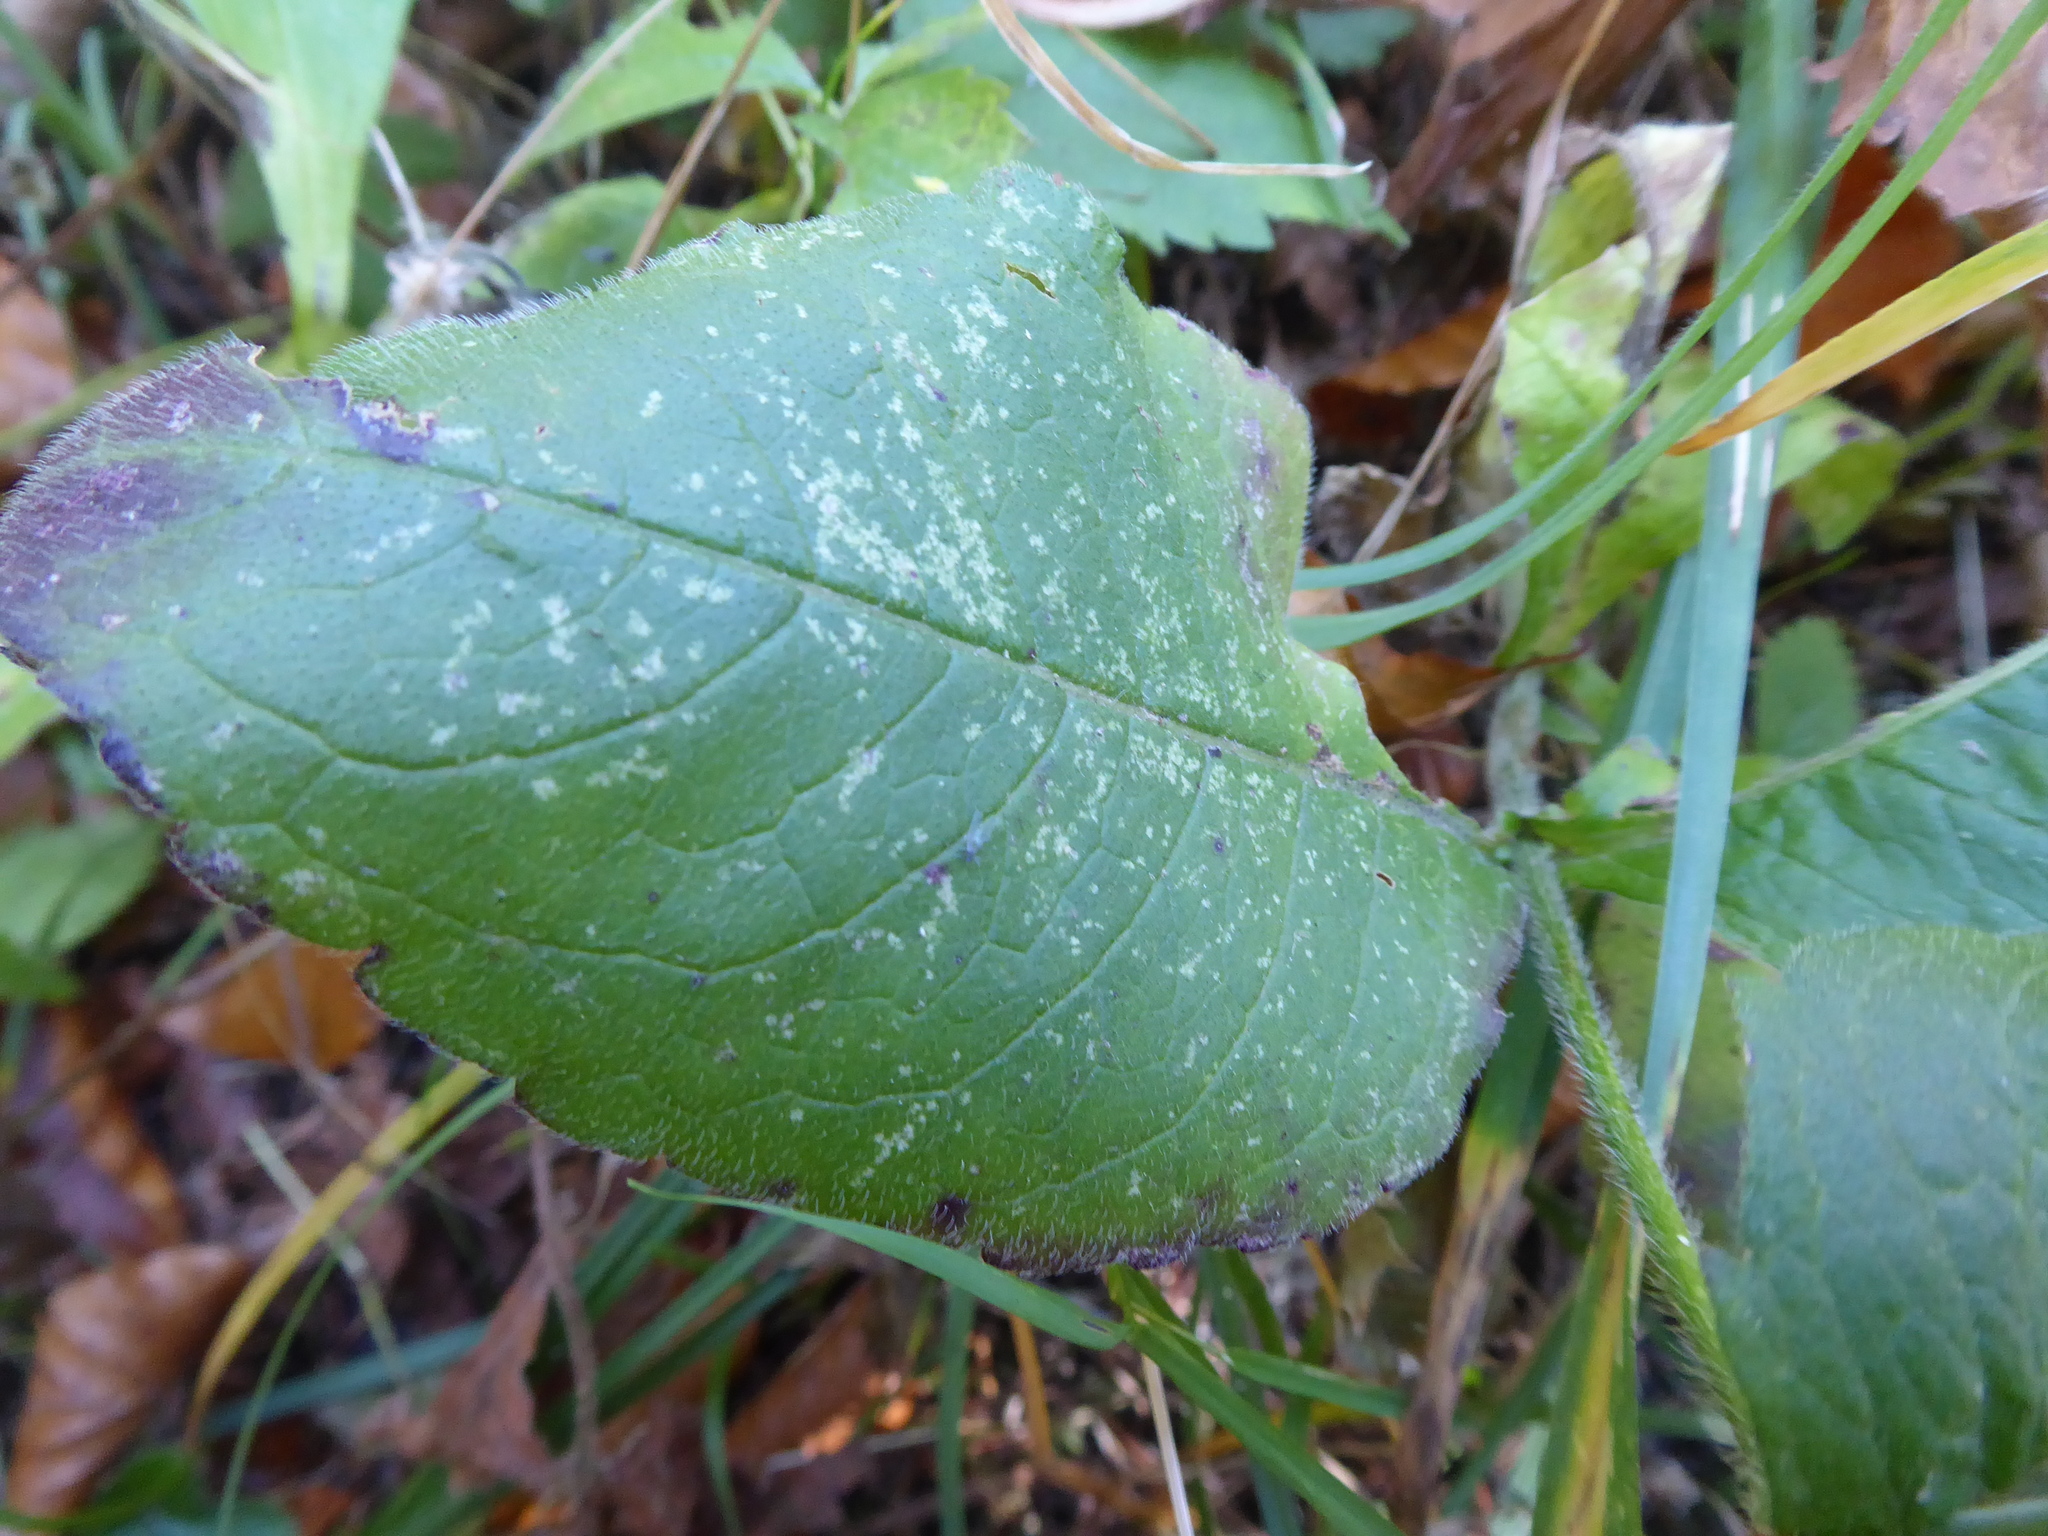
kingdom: Plantae
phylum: Tracheophyta
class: Magnoliopsida
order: Dipsacales
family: Caprifoliaceae
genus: Knautia
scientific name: Knautia dipsacifolia
